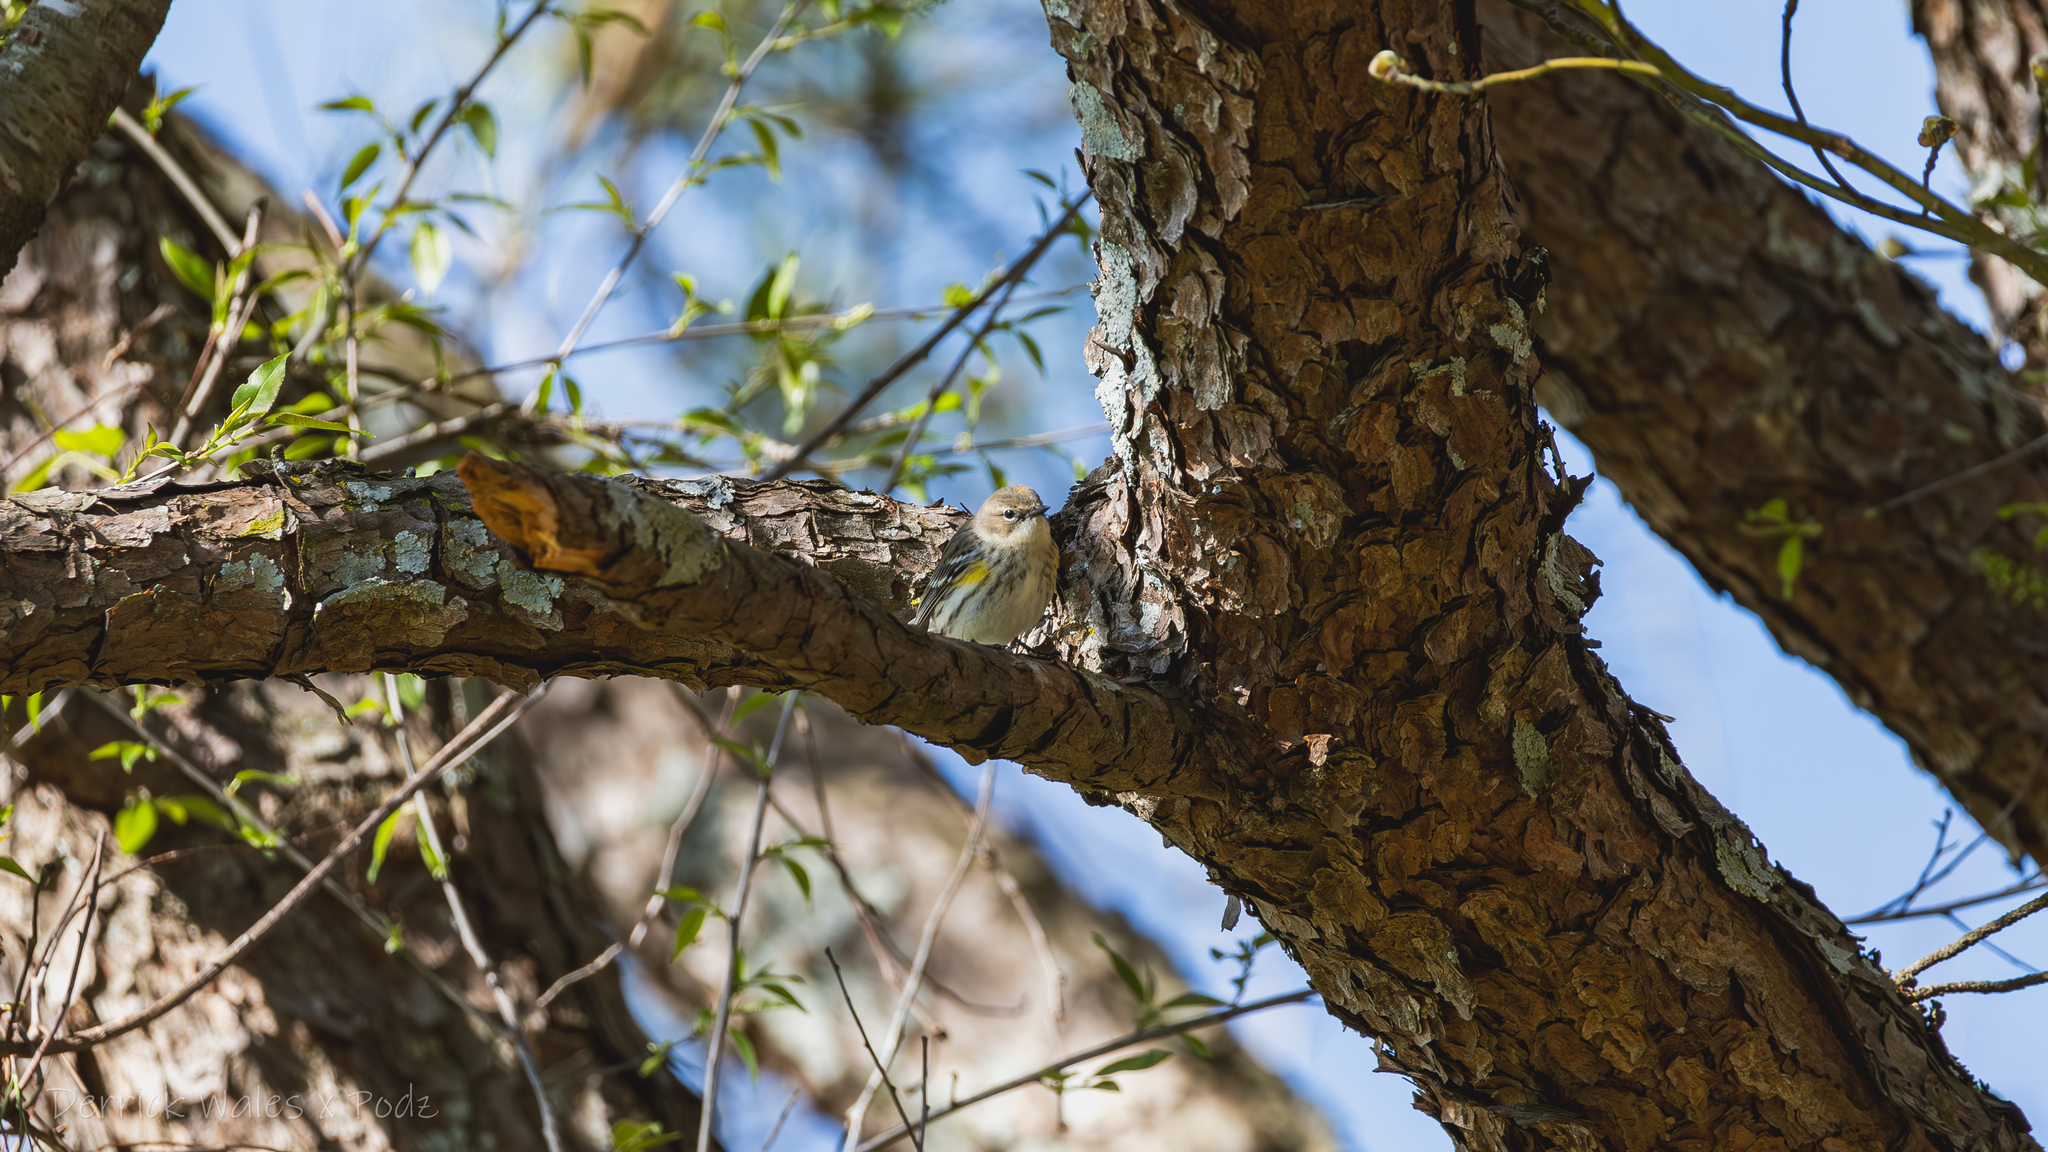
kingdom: Animalia
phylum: Chordata
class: Aves
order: Passeriformes
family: Parulidae
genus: Setophaga
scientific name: Setophaga coronata
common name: Myrtle warbler
